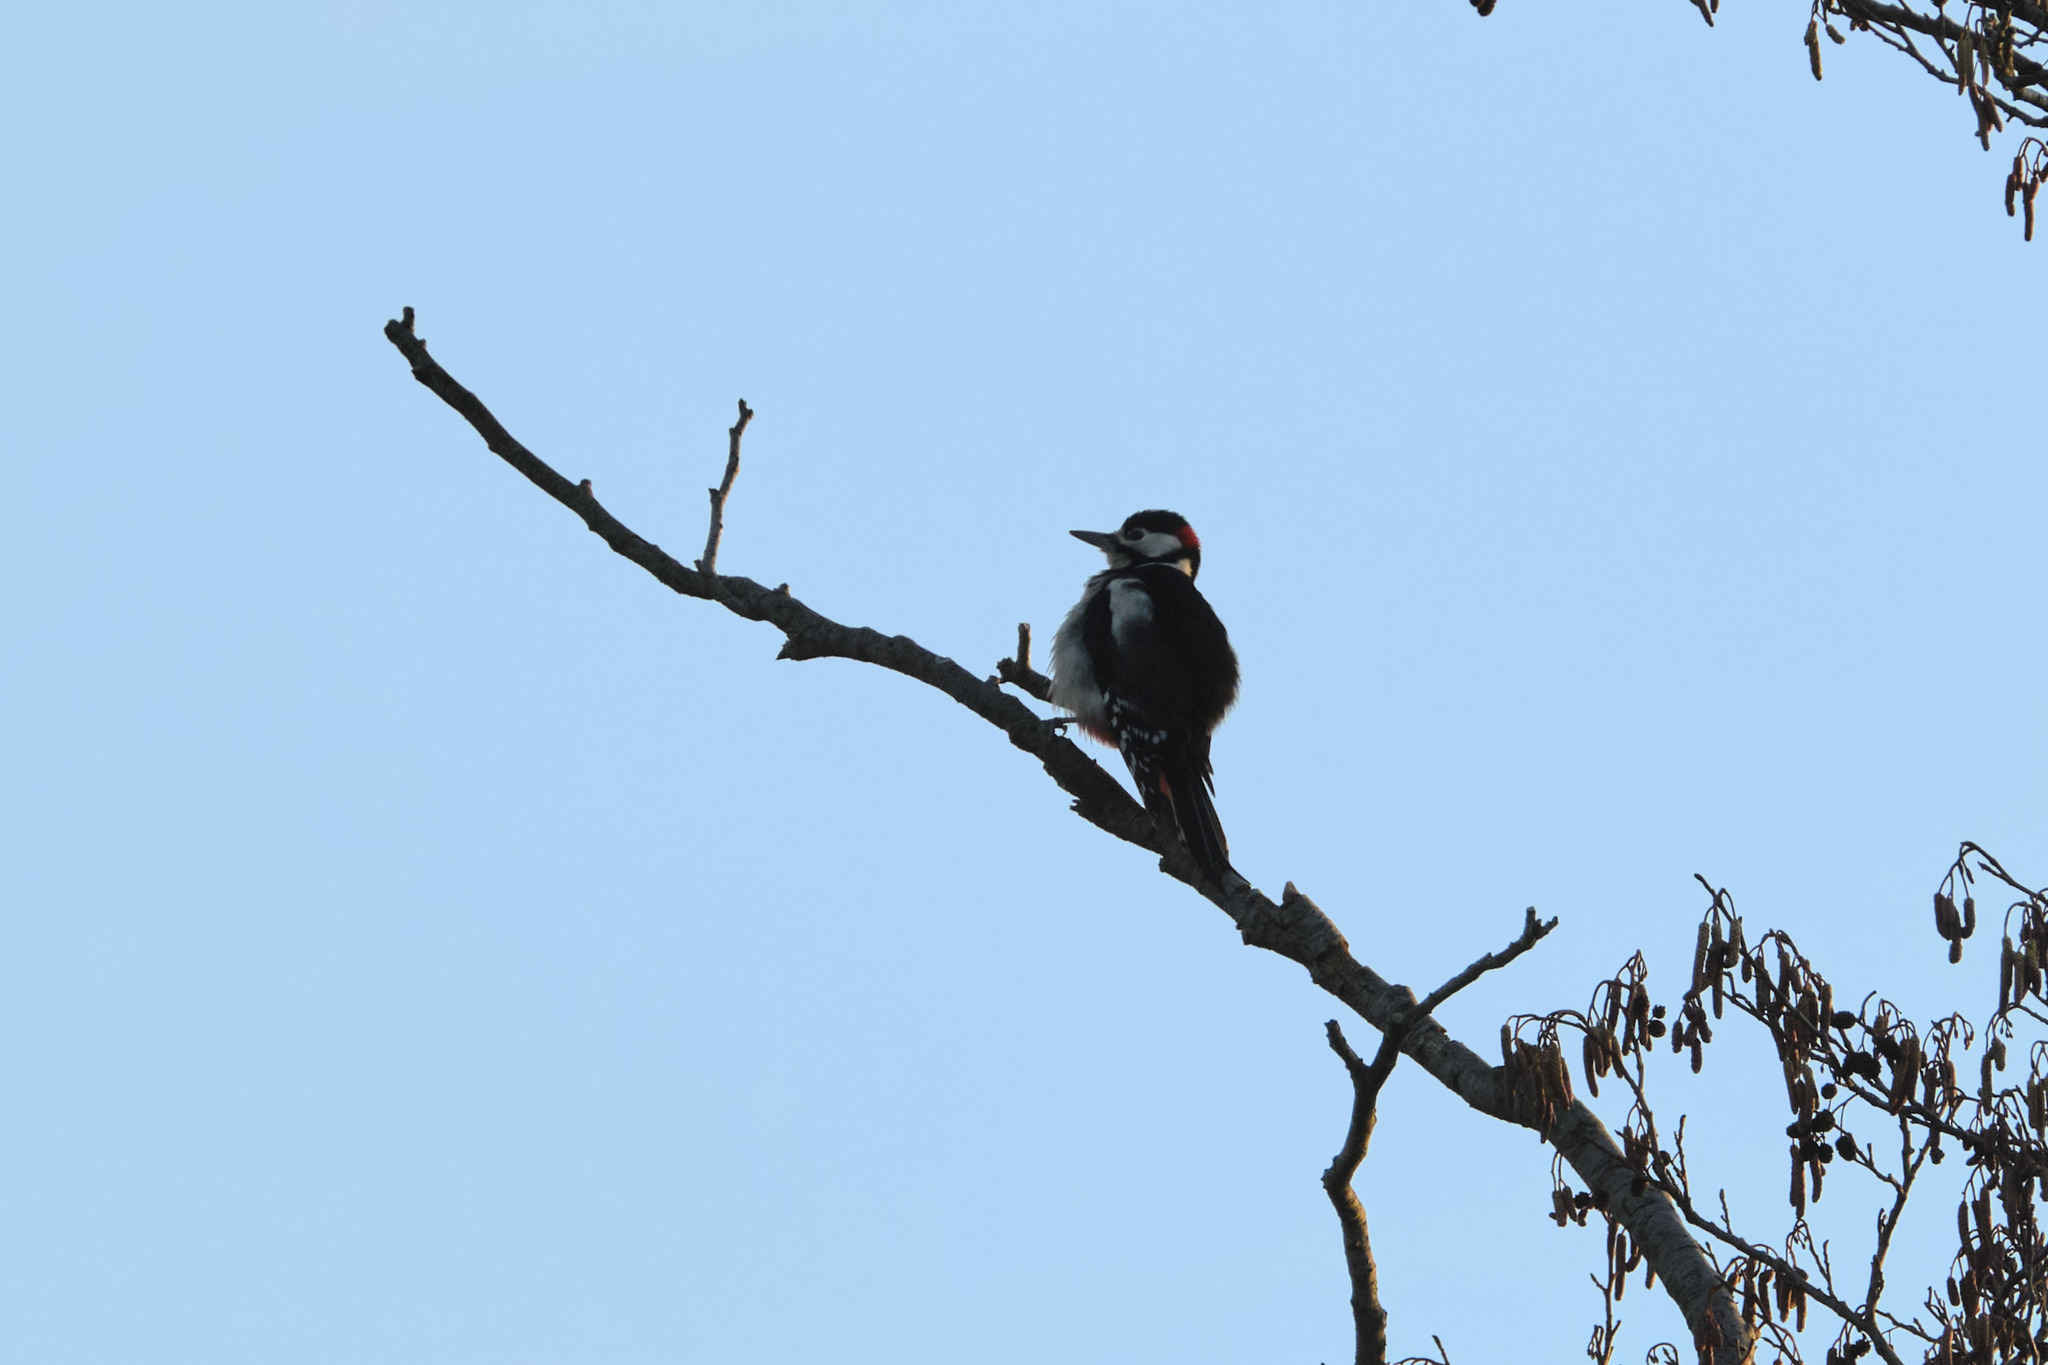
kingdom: Animalia
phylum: Chordata
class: Aves
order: Piciformes
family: Picidae
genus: Dendrocopos
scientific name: Dendrocopos major
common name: Great spotted woodpecker
